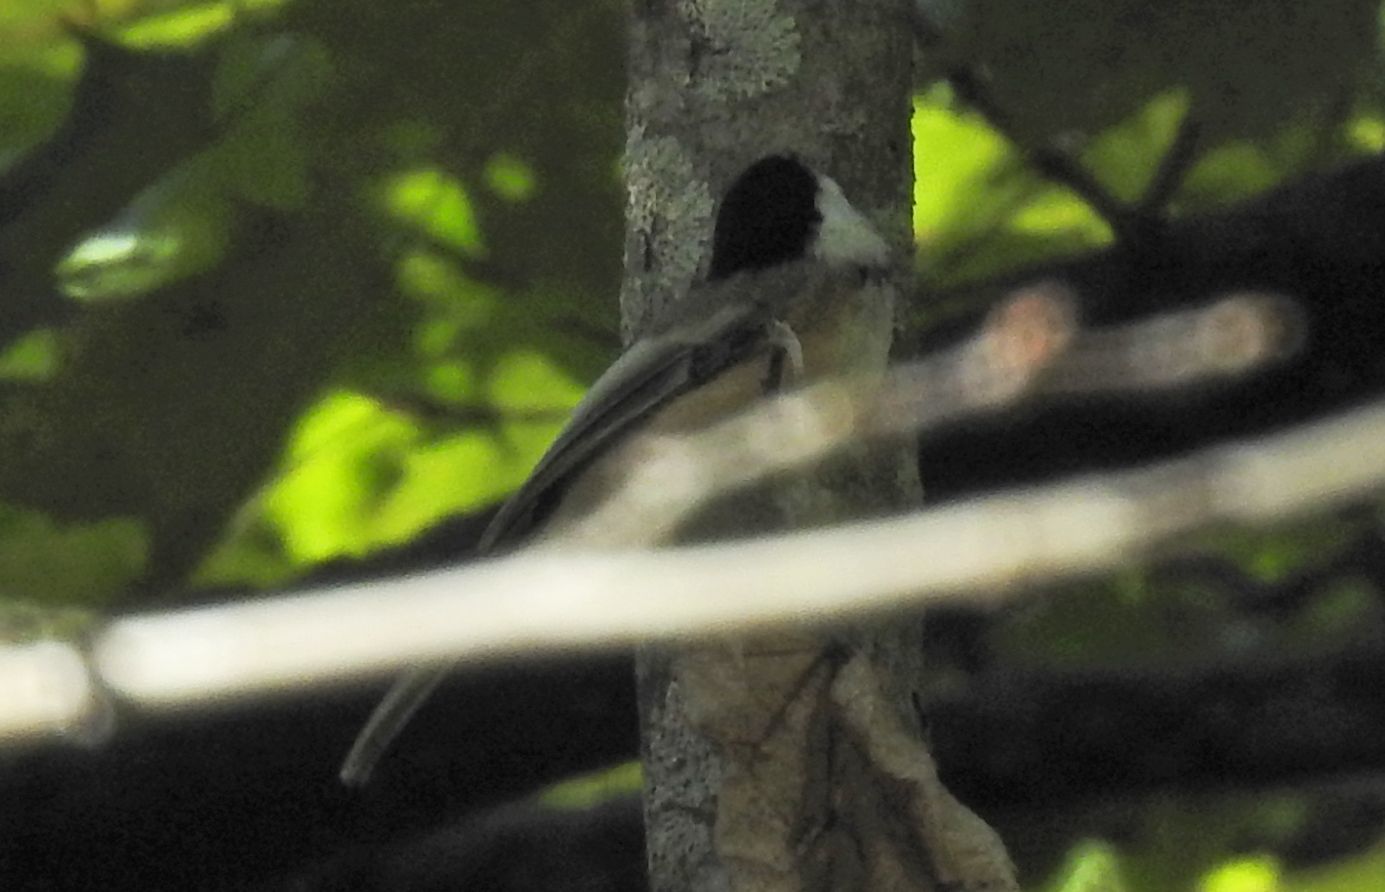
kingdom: Animalia
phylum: Chordata
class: Aves
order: Passeriformes
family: Paridae
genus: Poecile
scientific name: Poecile atricapillus
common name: Black-capped chickadee
